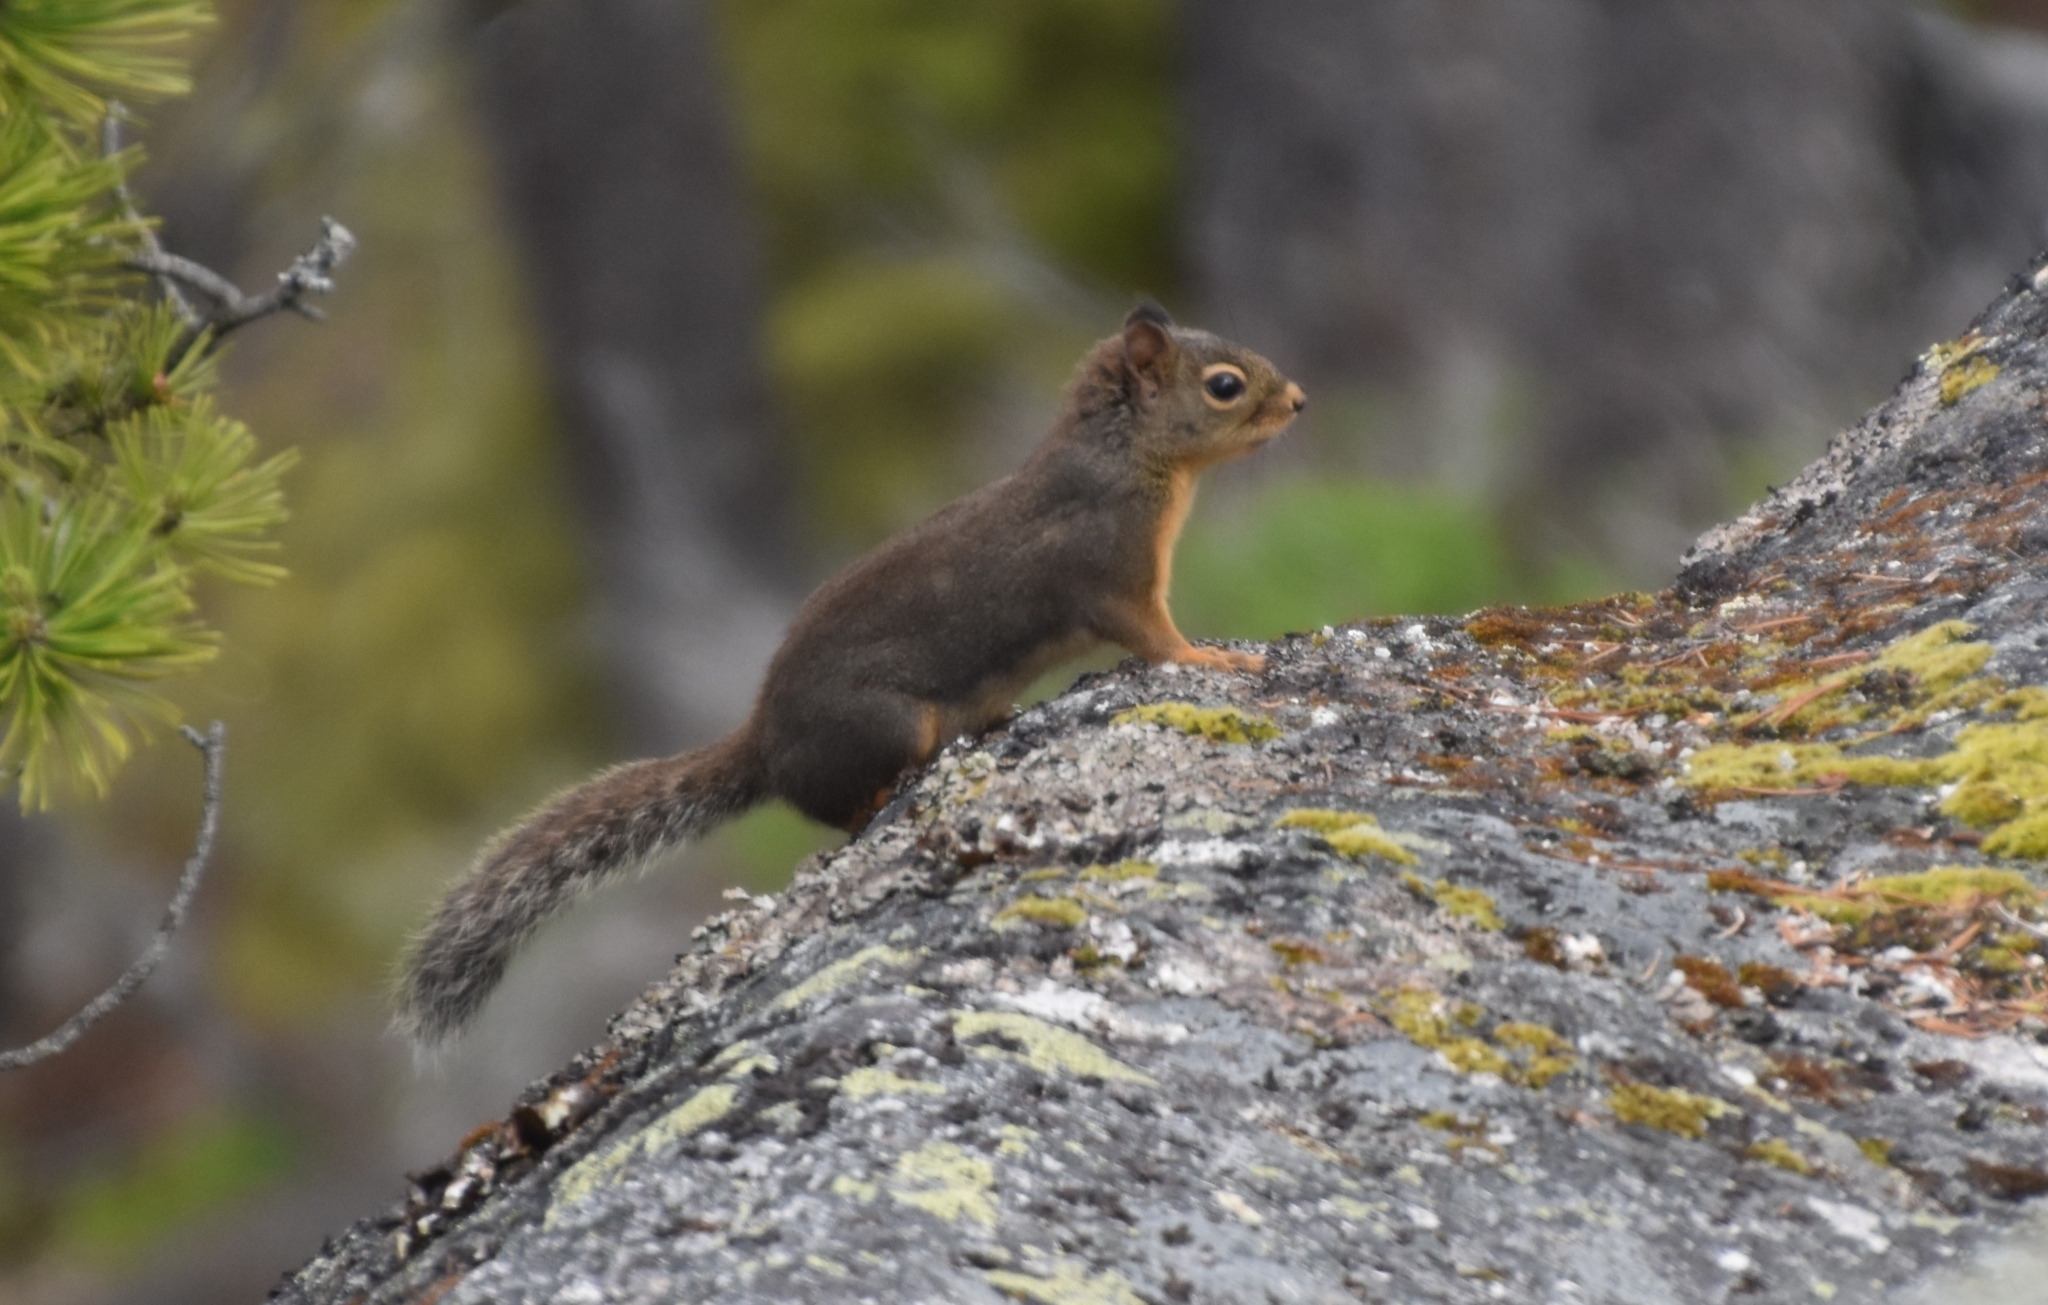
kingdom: Animalia
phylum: Chordata
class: Mammalia
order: Rodentia
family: Sciuridae
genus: Tamiasciurus
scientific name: Tamiasciurus douglasii
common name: Douglas's squirrel
